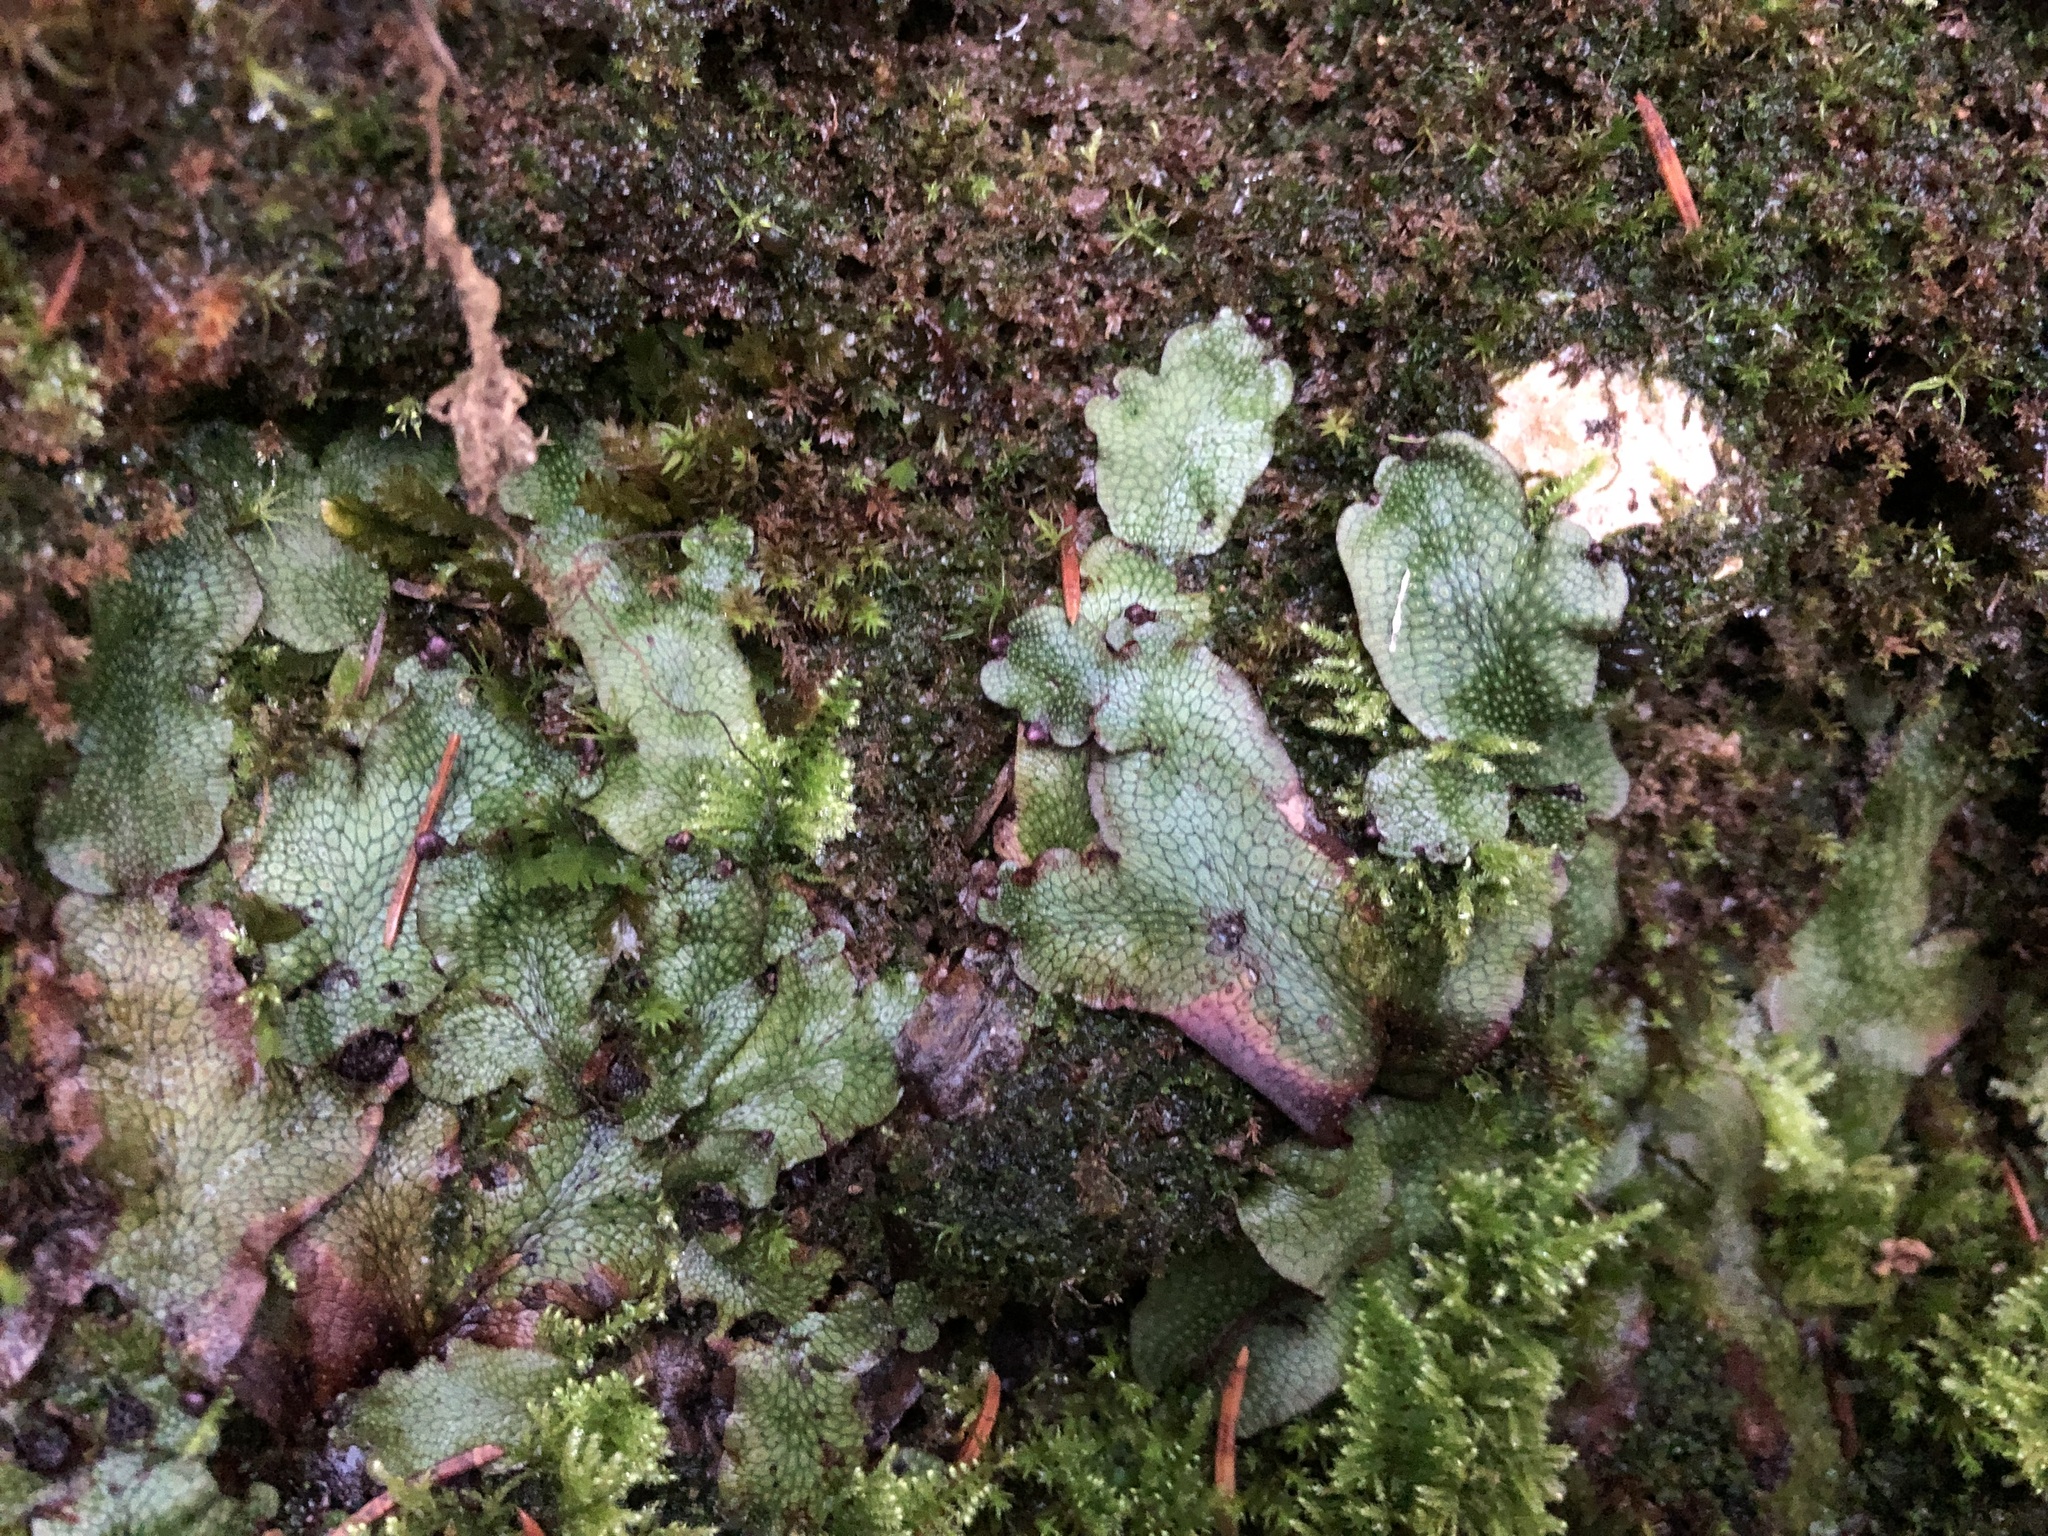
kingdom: Plantae
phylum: Marchantiophyta
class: Marchantiopsida
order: Marchantiales
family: Conocephalaceae
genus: Conocephalum
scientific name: Conocephalum salebrosum
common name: Cat-tongue liverwort
